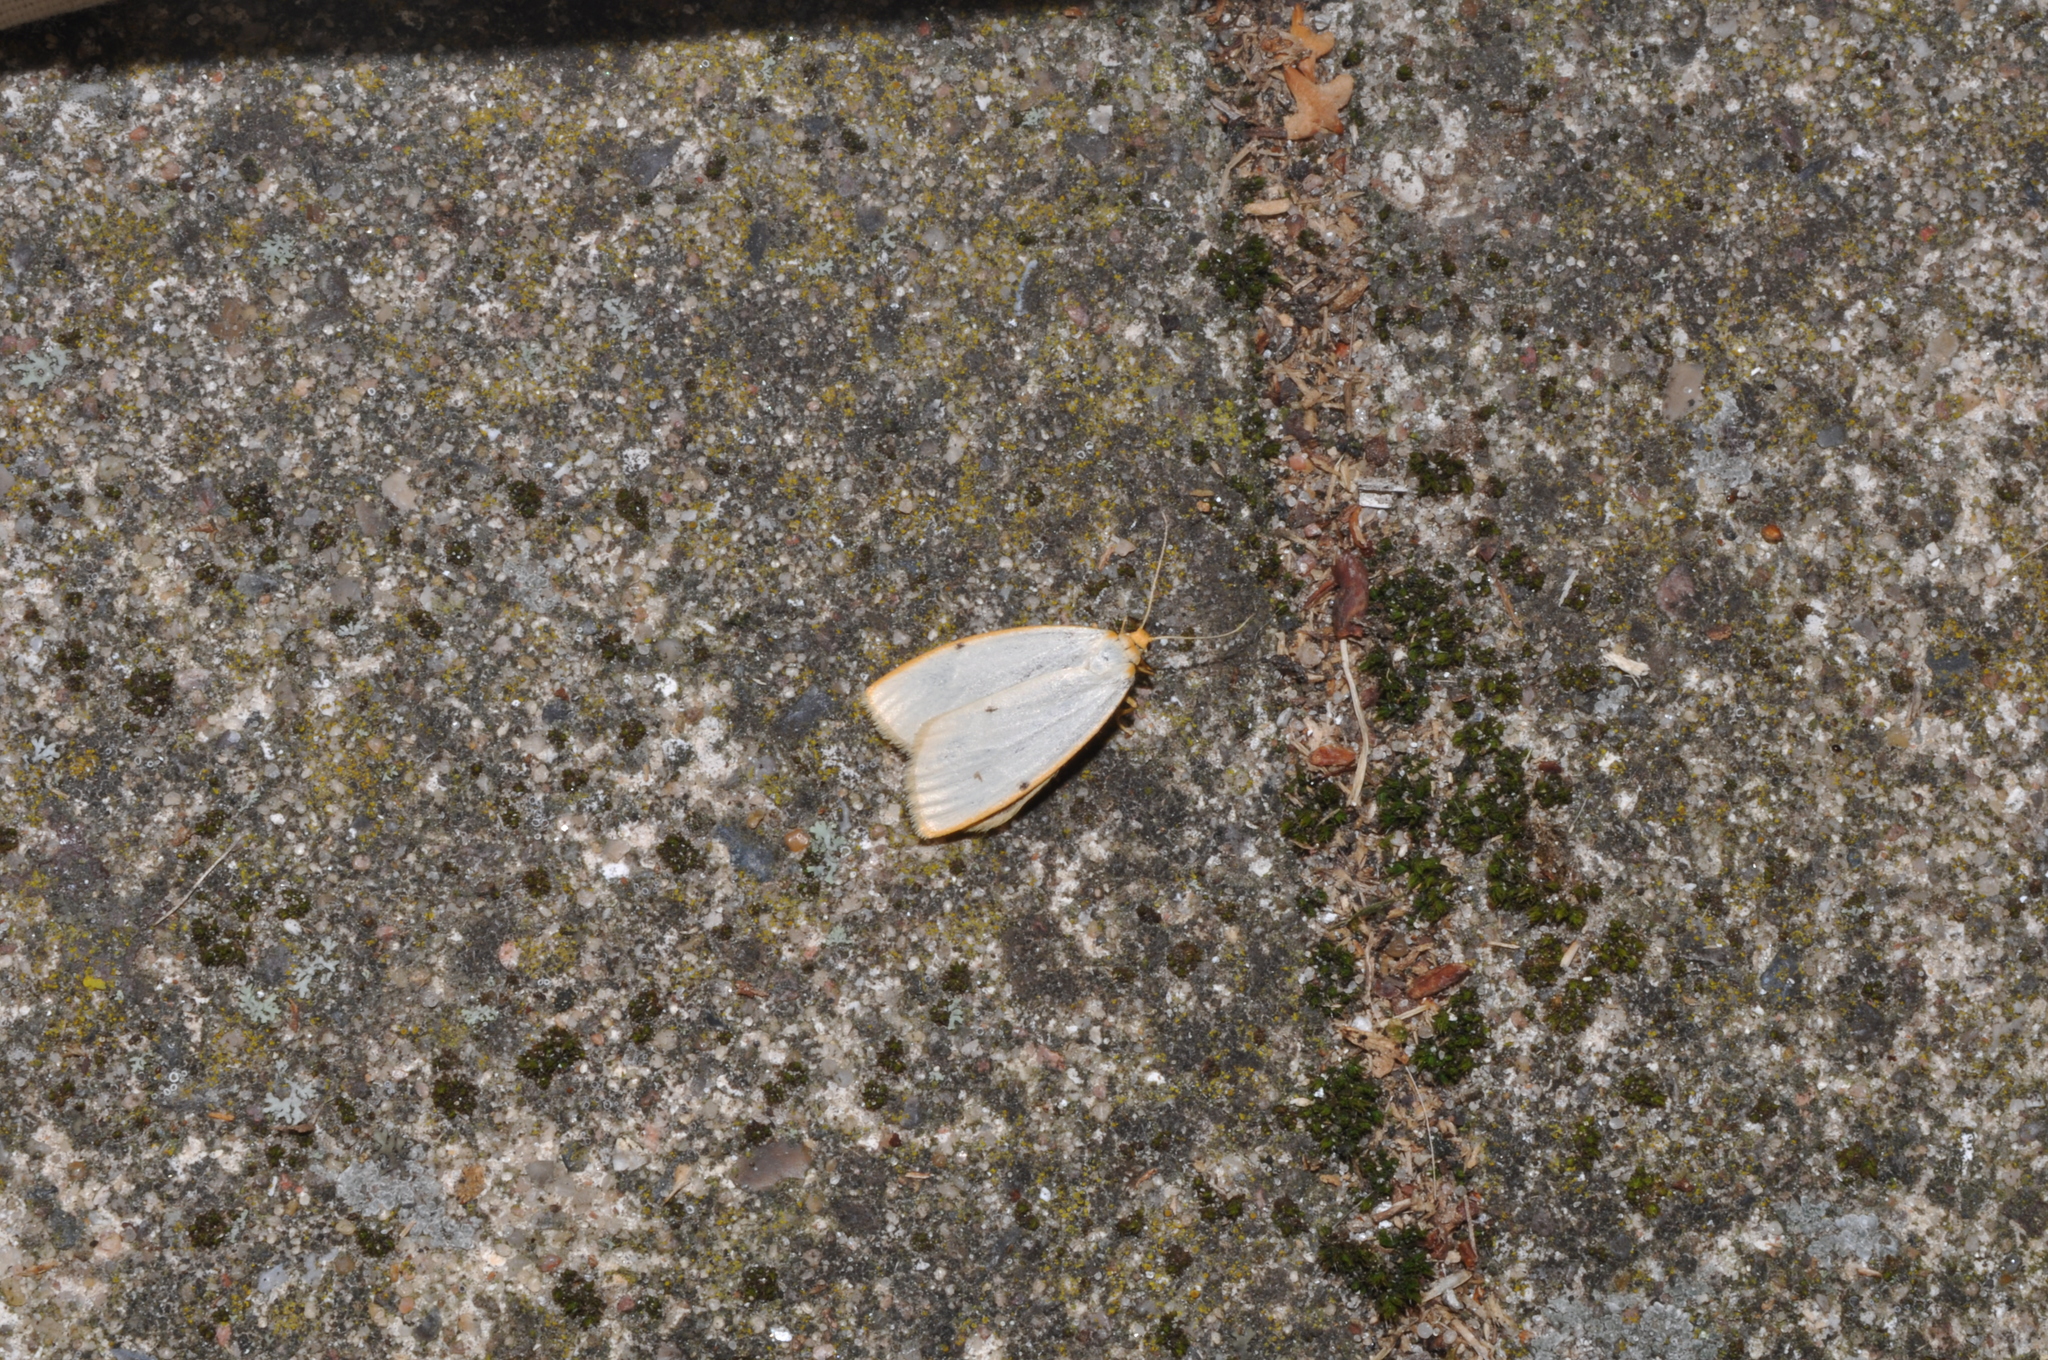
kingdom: Animalia
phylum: Arthropoda
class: Insecta
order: Lepidoptera
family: Erebidae
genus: Cybosia
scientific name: Cybosia mesomella
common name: Four-dotted footman
